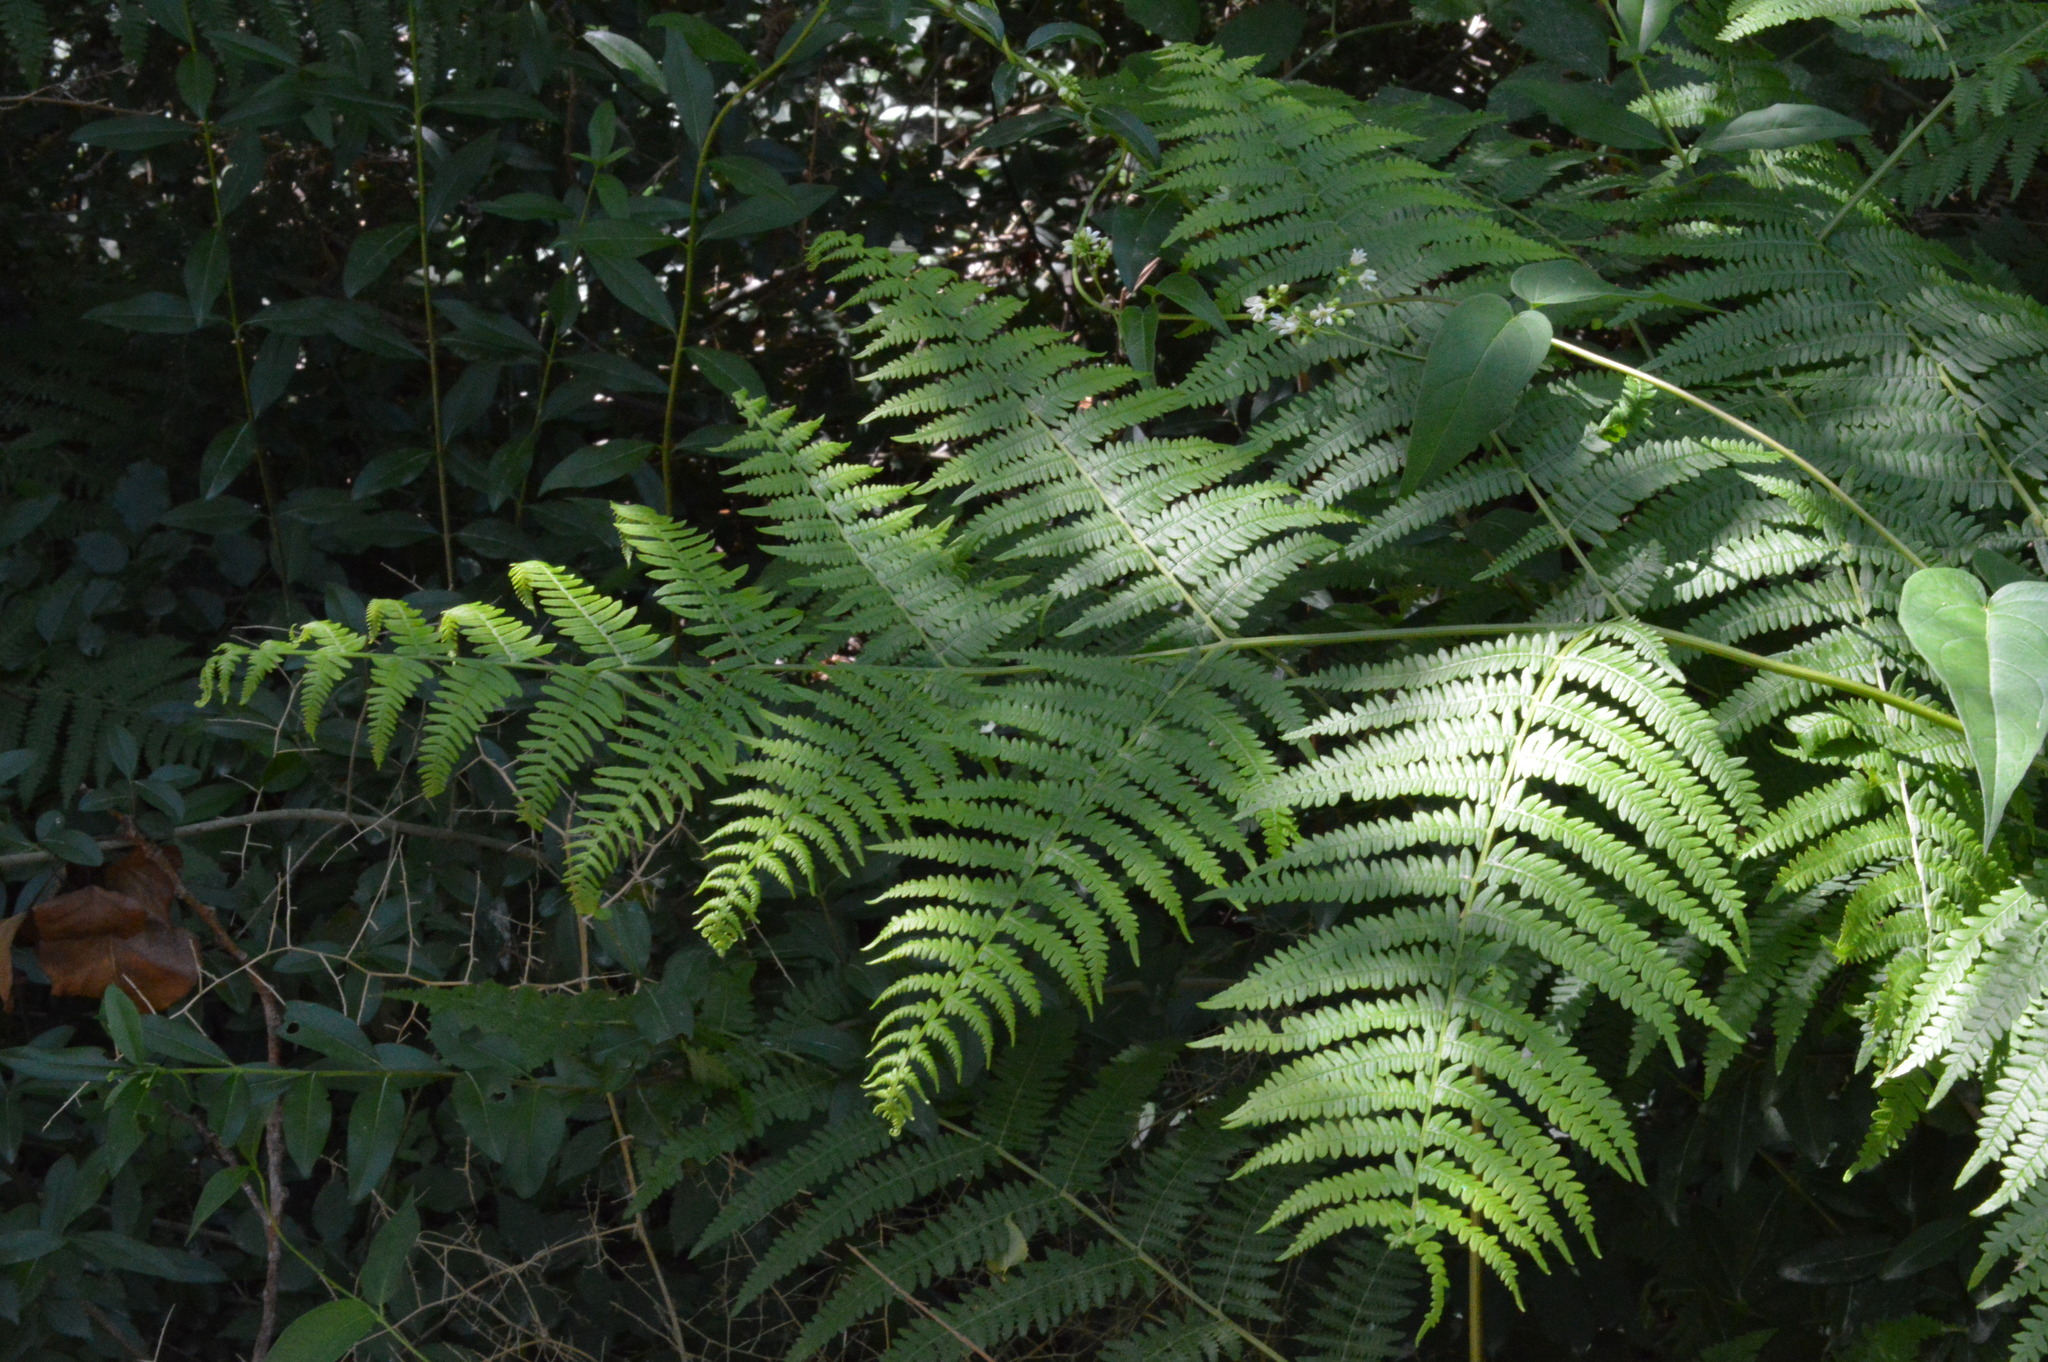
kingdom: Plantae
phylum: Tracheophyta
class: Polypodiopsida
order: Polypodiales
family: Dennstaedtiaceae
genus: Pteridium
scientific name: Pteridium aquilinum
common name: Bracken
